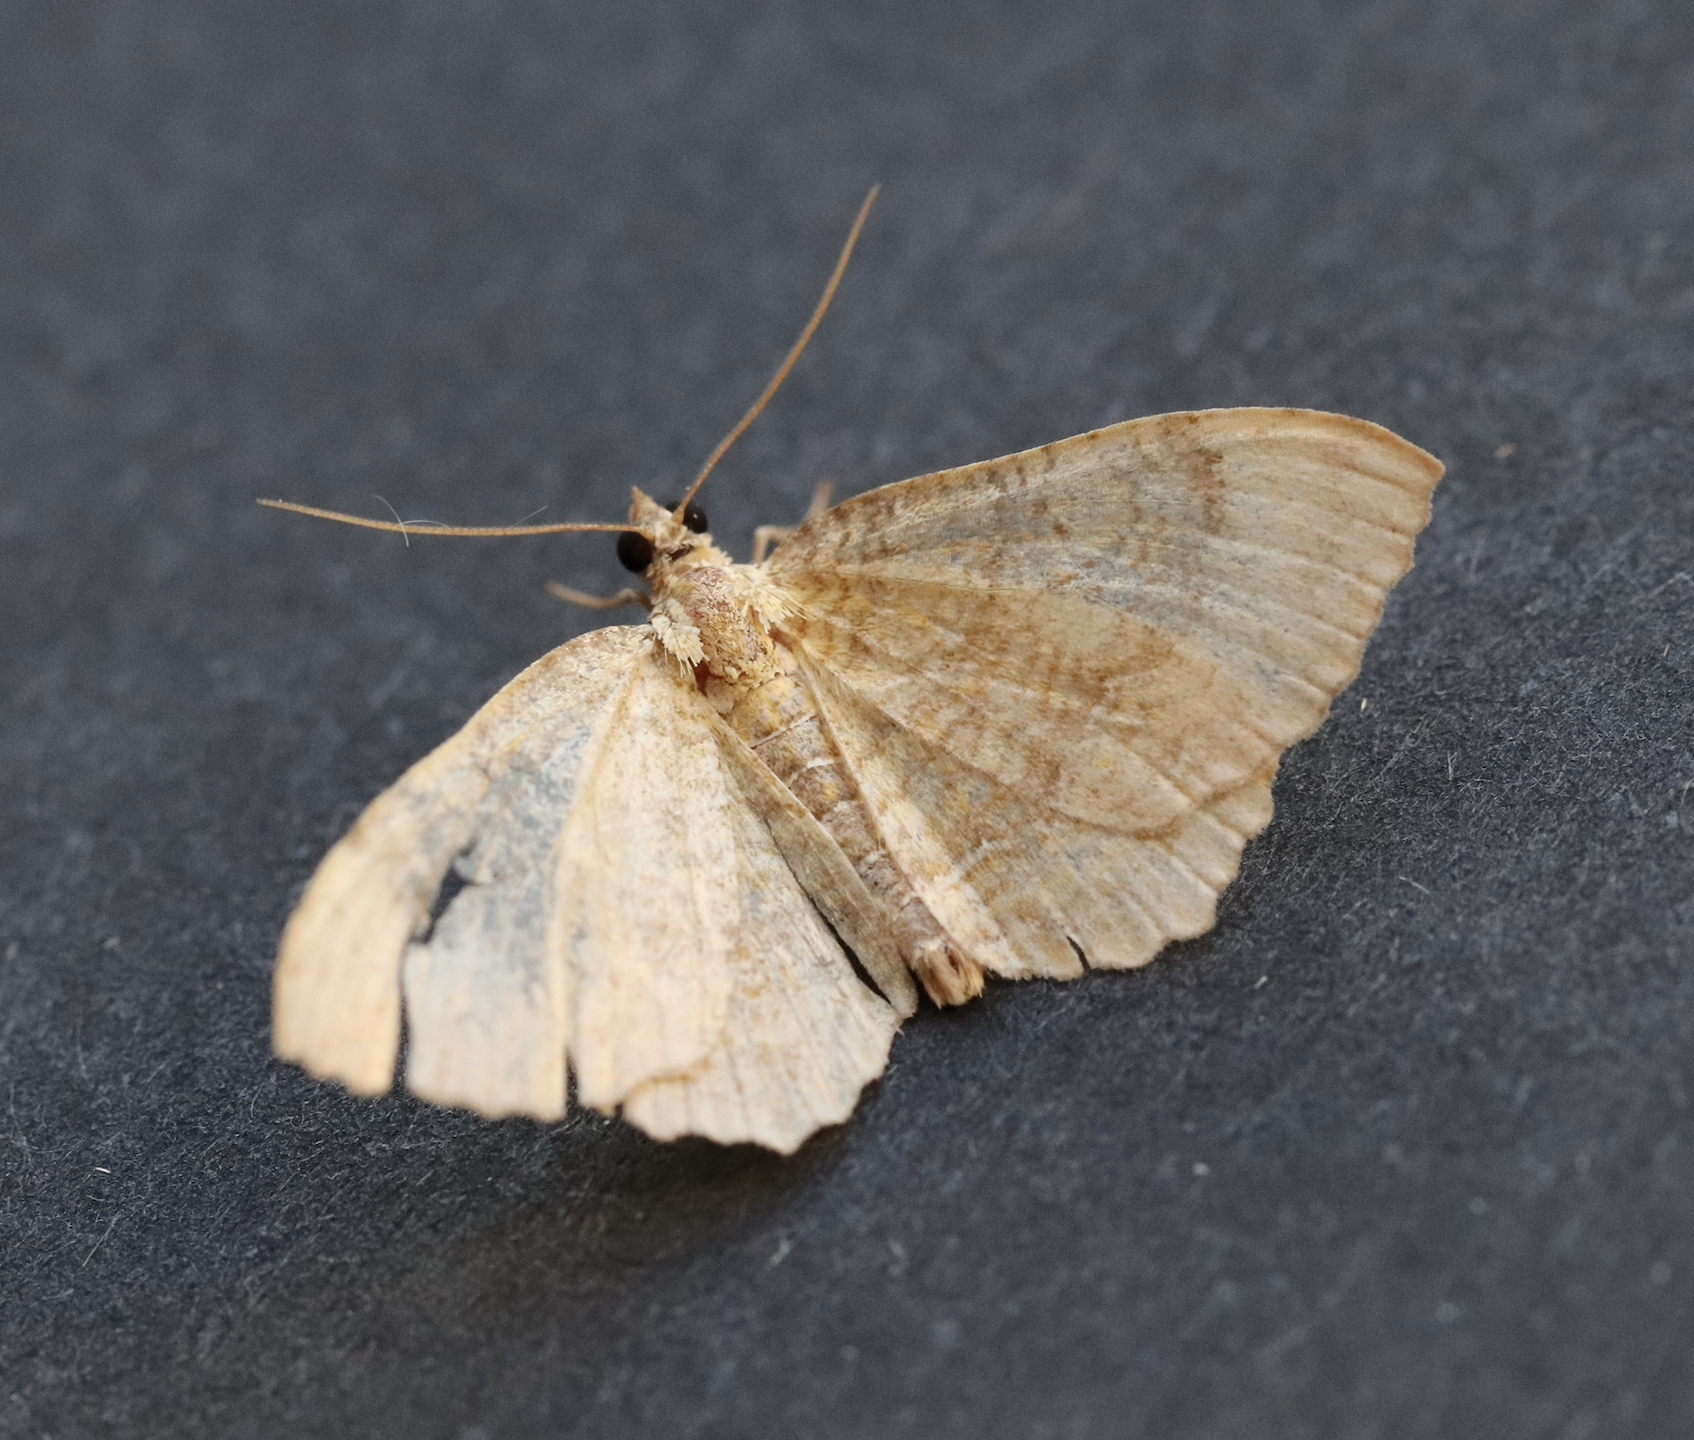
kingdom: Animalia
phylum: Arthropoda
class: Insecta
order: Lepidoptera
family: Geometridae
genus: Camptogramma
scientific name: Camptogramma bilineata
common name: Yellow shell
